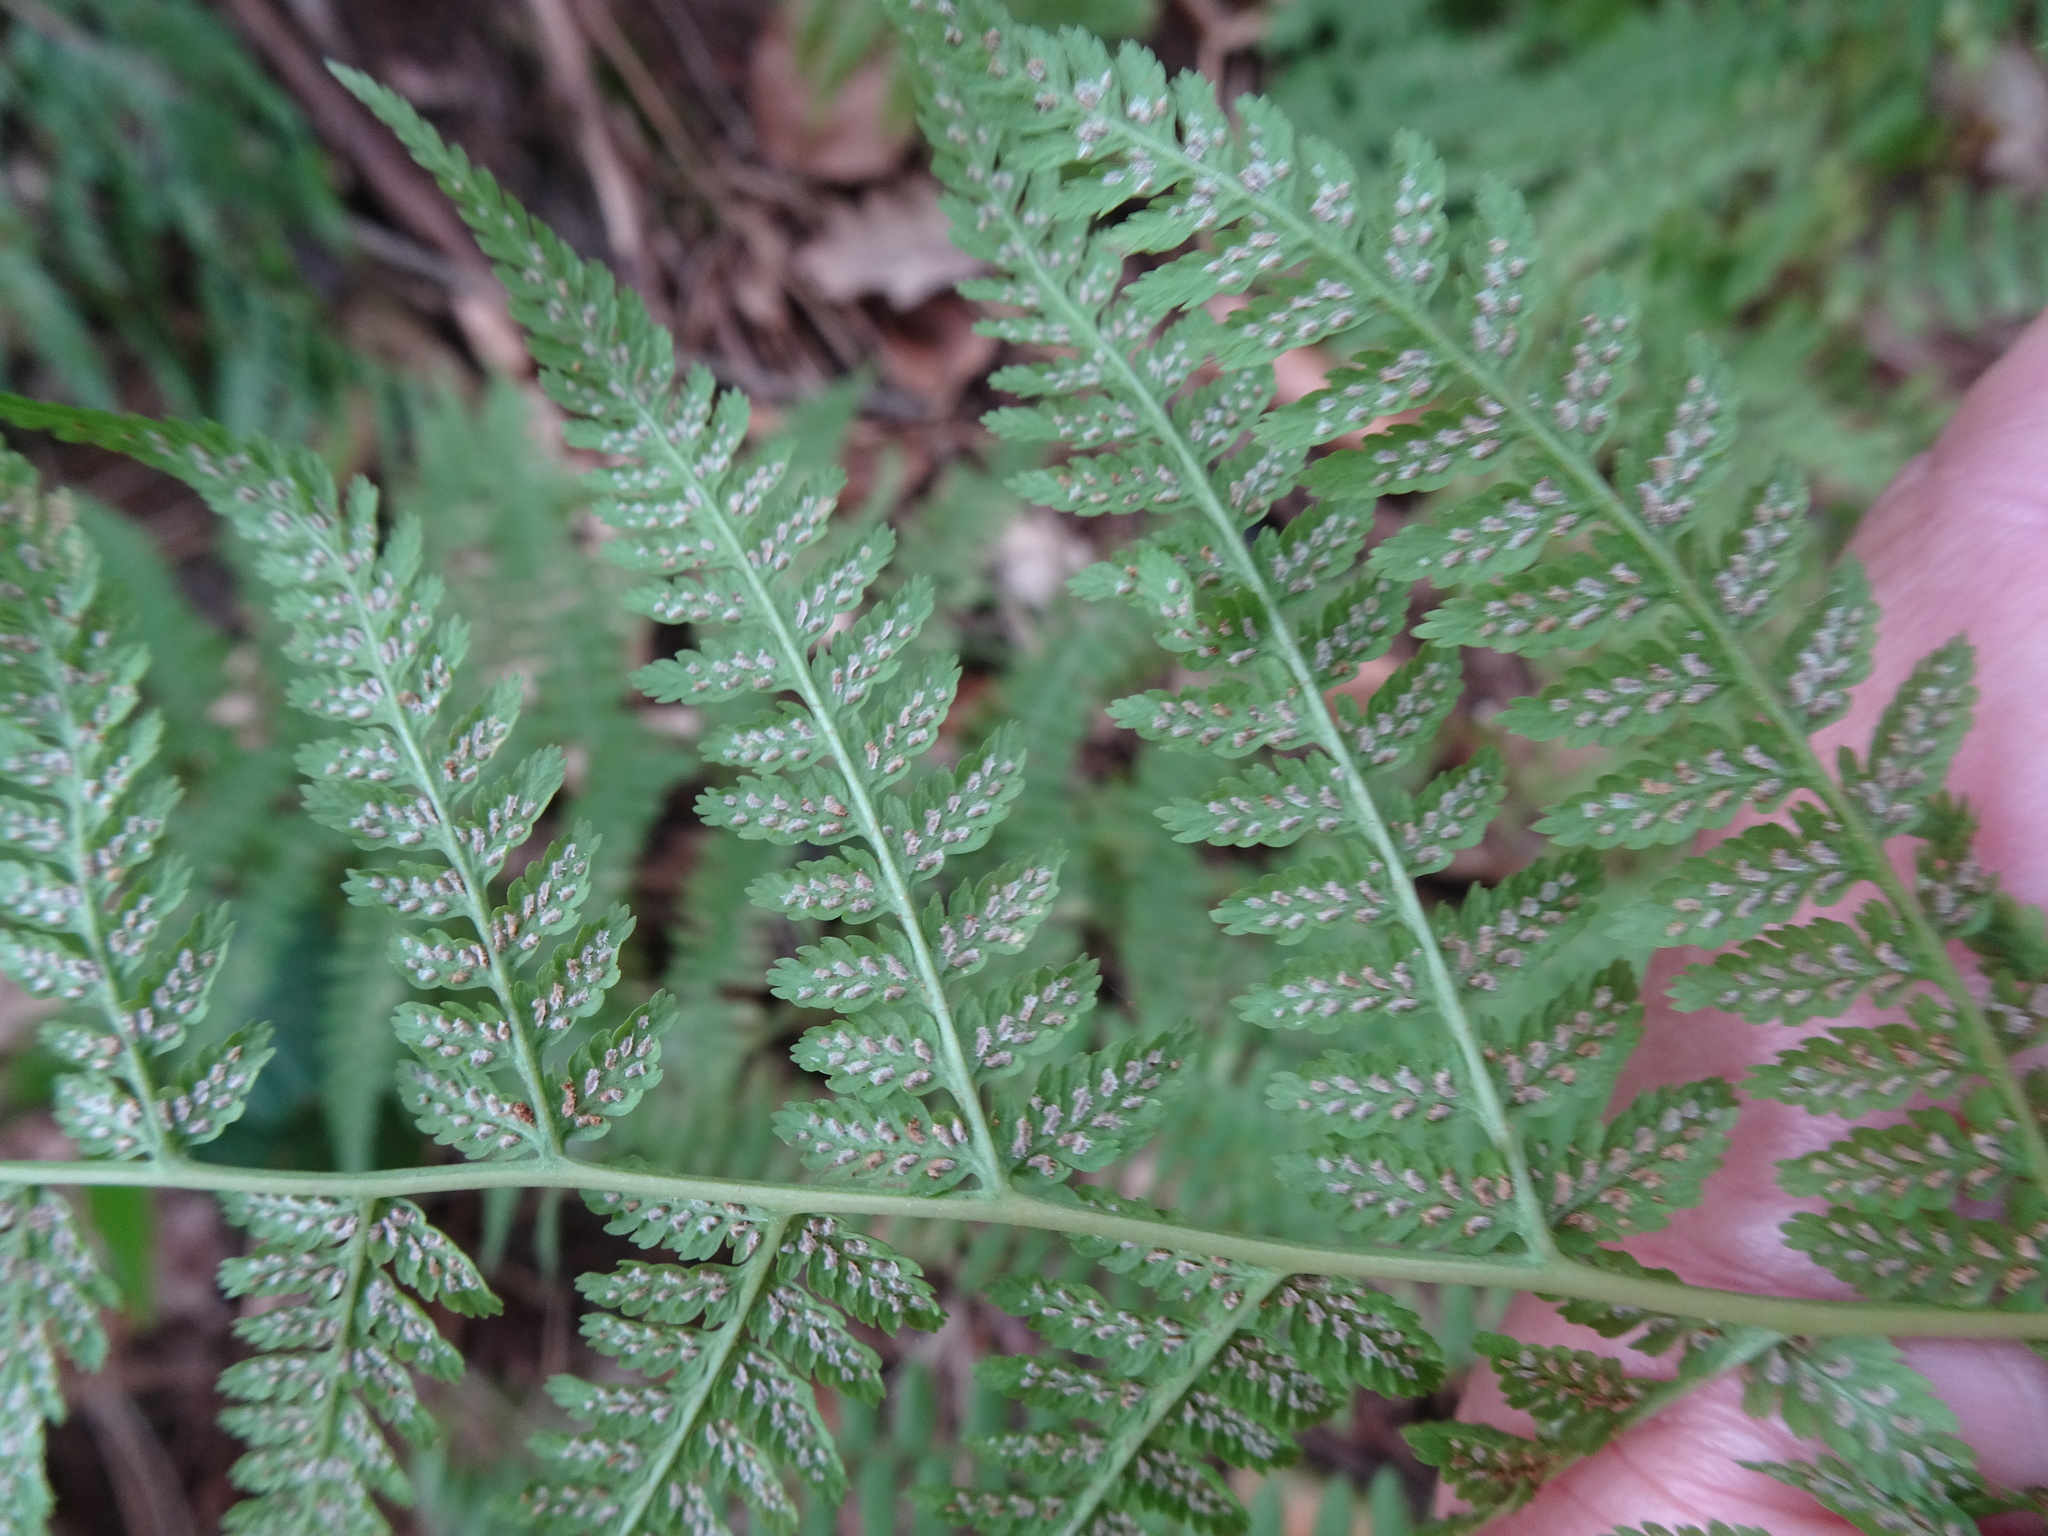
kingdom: Plantae
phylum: Tracheophyta
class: Polypodiopsida
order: Polypodiales
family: Athyriaceae
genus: Athyrium
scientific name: Athyrium filix-femina
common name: Lady fern
